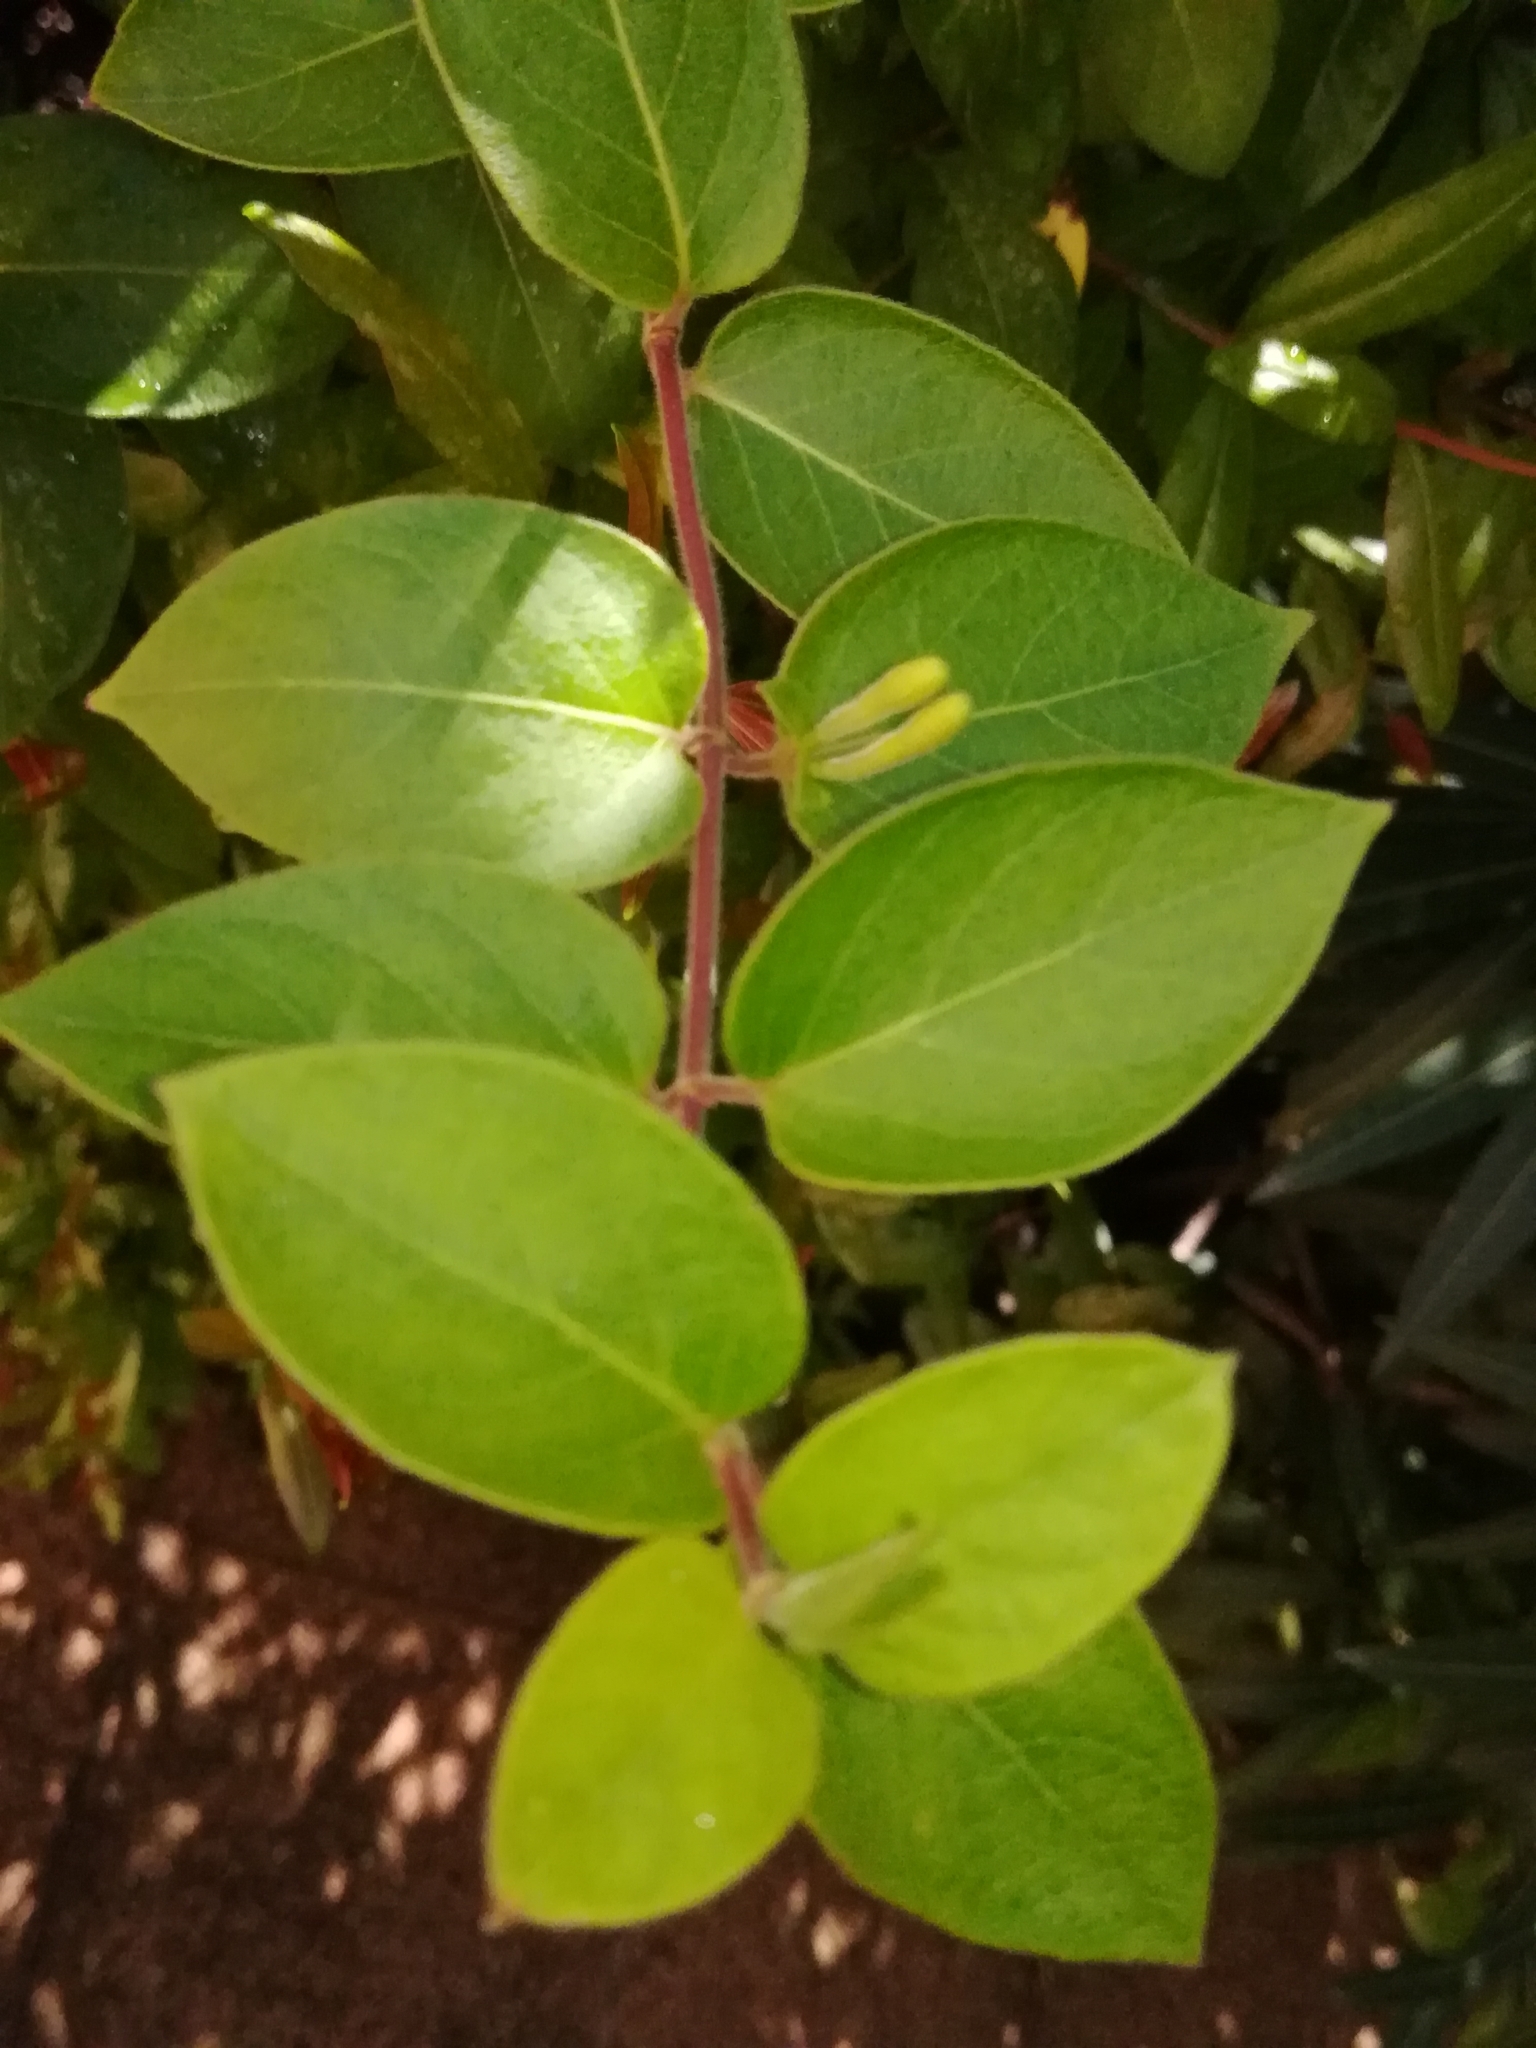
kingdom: Plantae
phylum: Tracheophyta
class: Magnoliopsida
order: Dipsacales
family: Caprifoliaceae
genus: Lonicera
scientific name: Lonicera japonica
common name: Japanese honeysuckle
